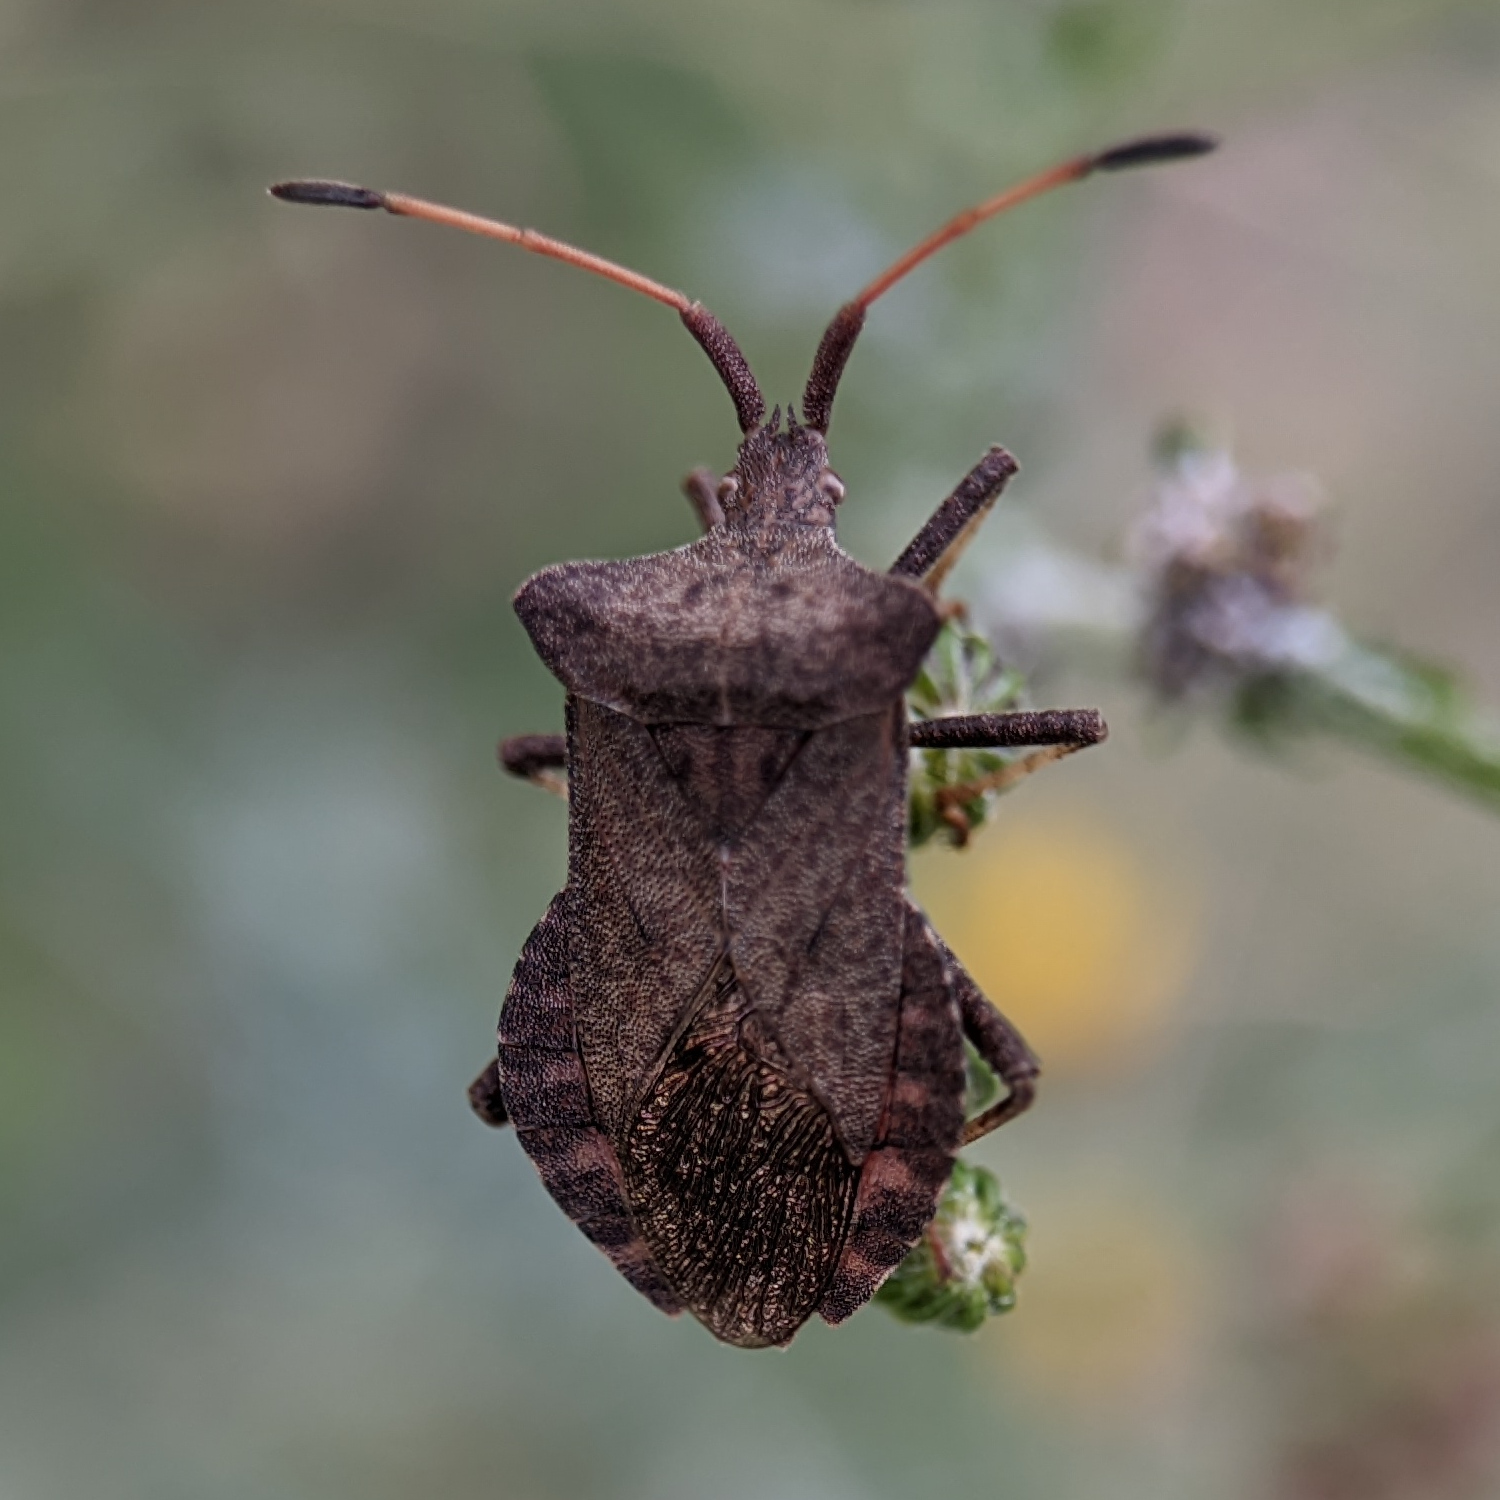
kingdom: Animalia
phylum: Arthropoda
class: Insecta
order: Hemiptera
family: Coreidae
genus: Coreus
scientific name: Coreus marginatus
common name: Dock bug
